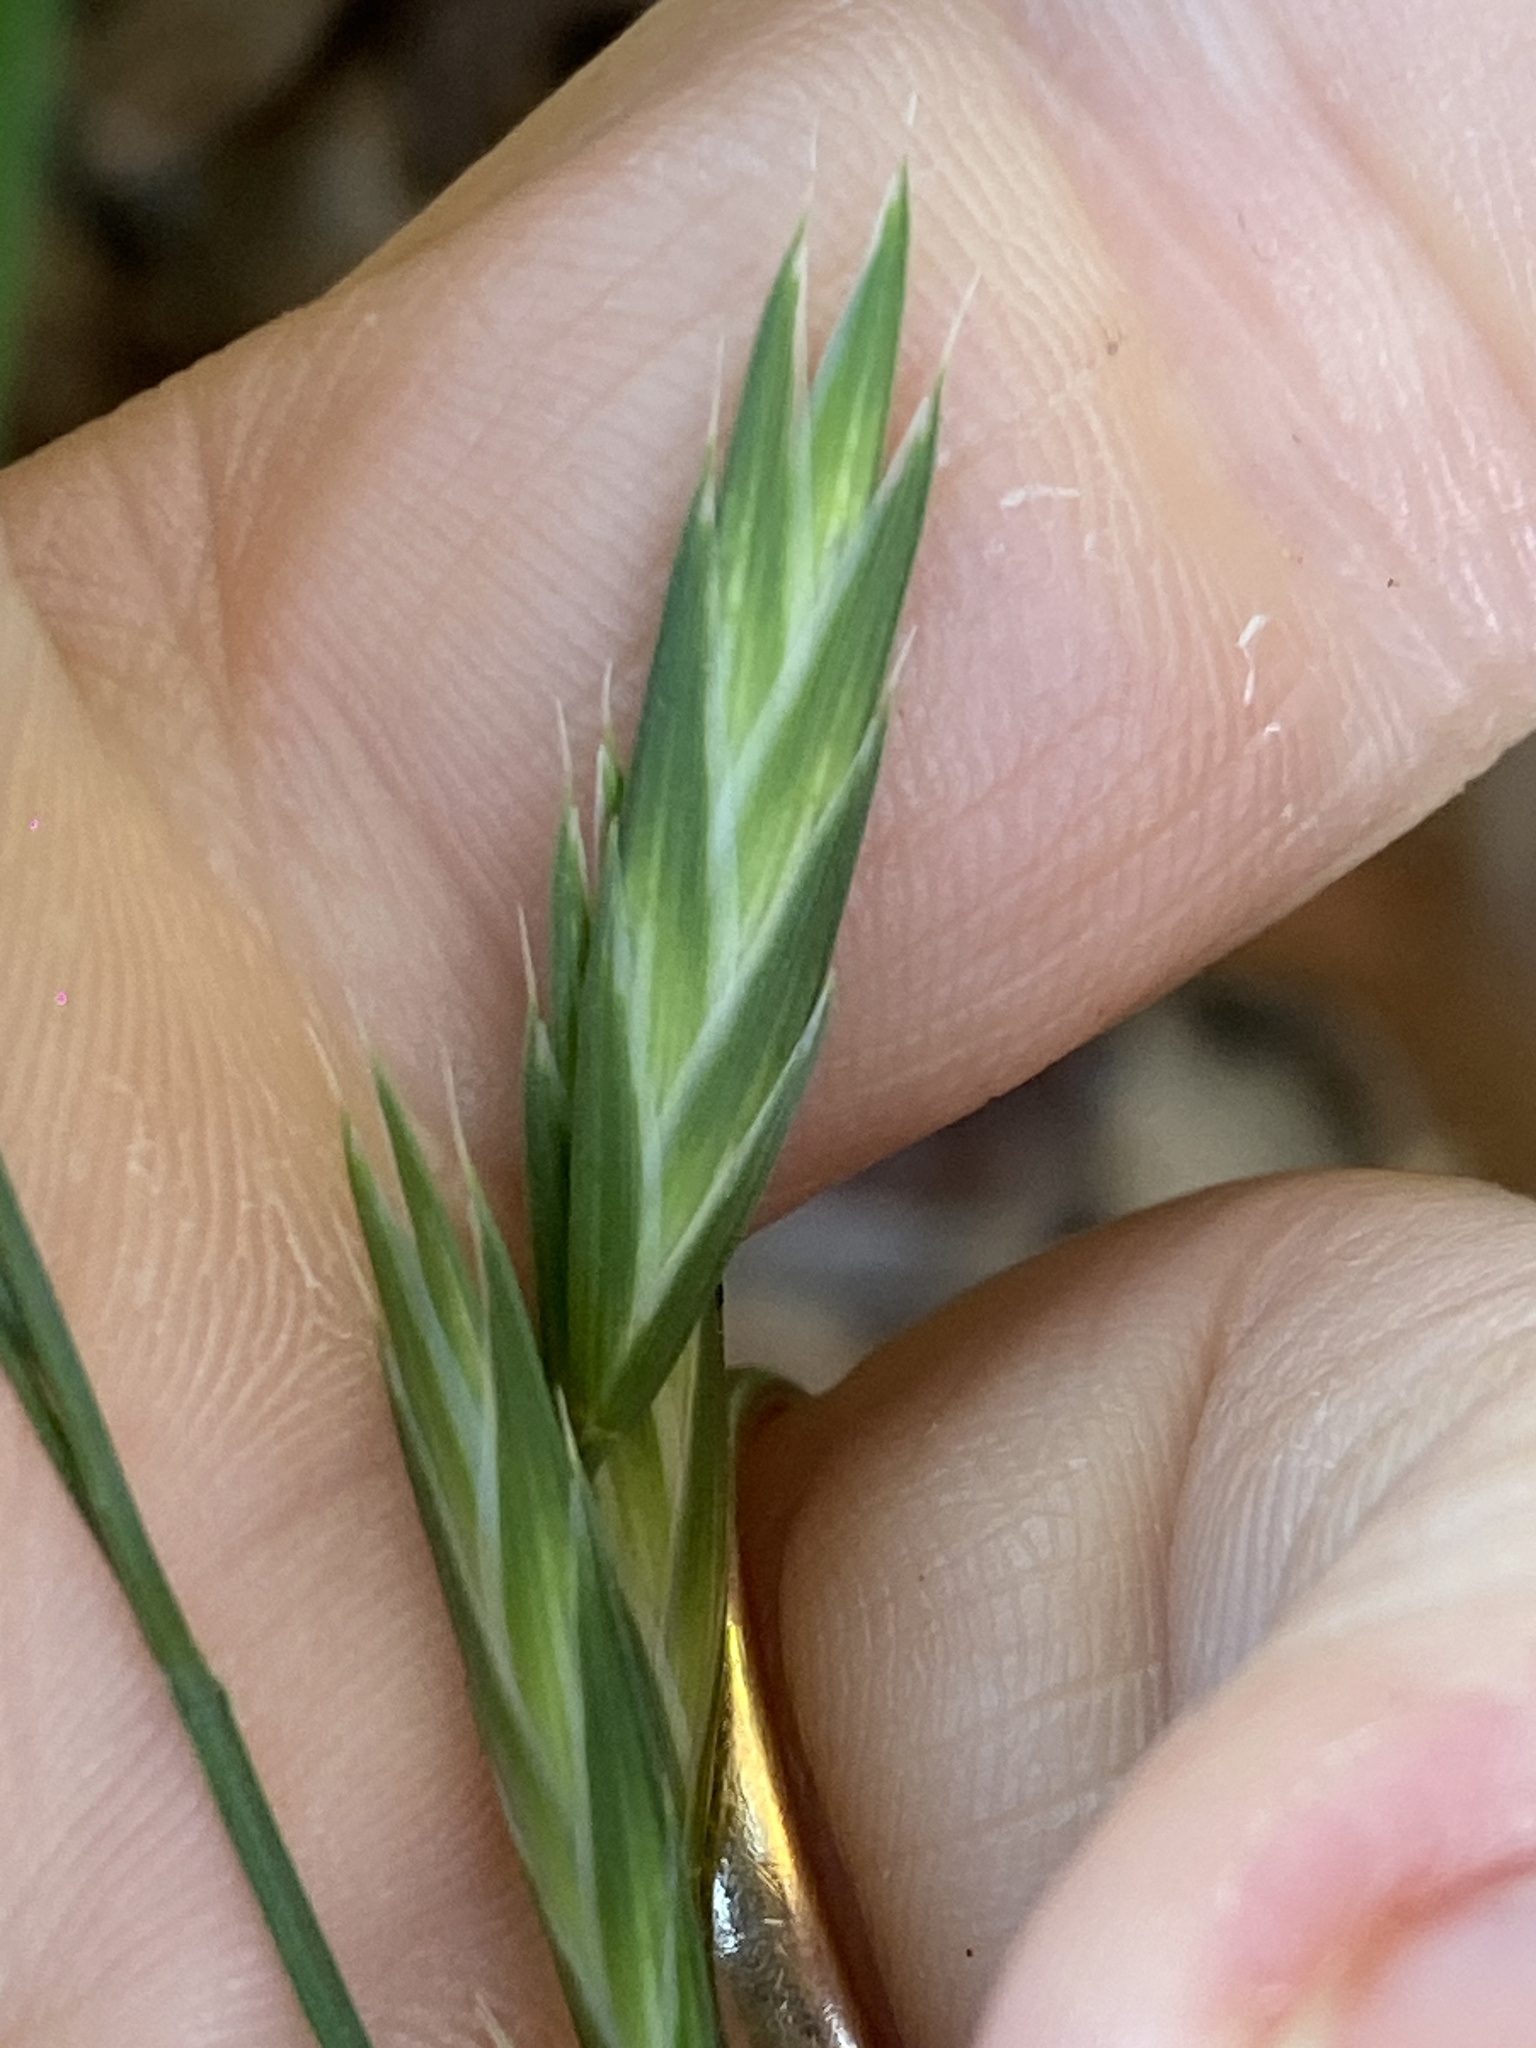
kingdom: Plantae
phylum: Tracheophyta
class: Liliopsida
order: Poales
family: Poaceae
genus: Bromus
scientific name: Bromus catharticus
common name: Rescuegrass
